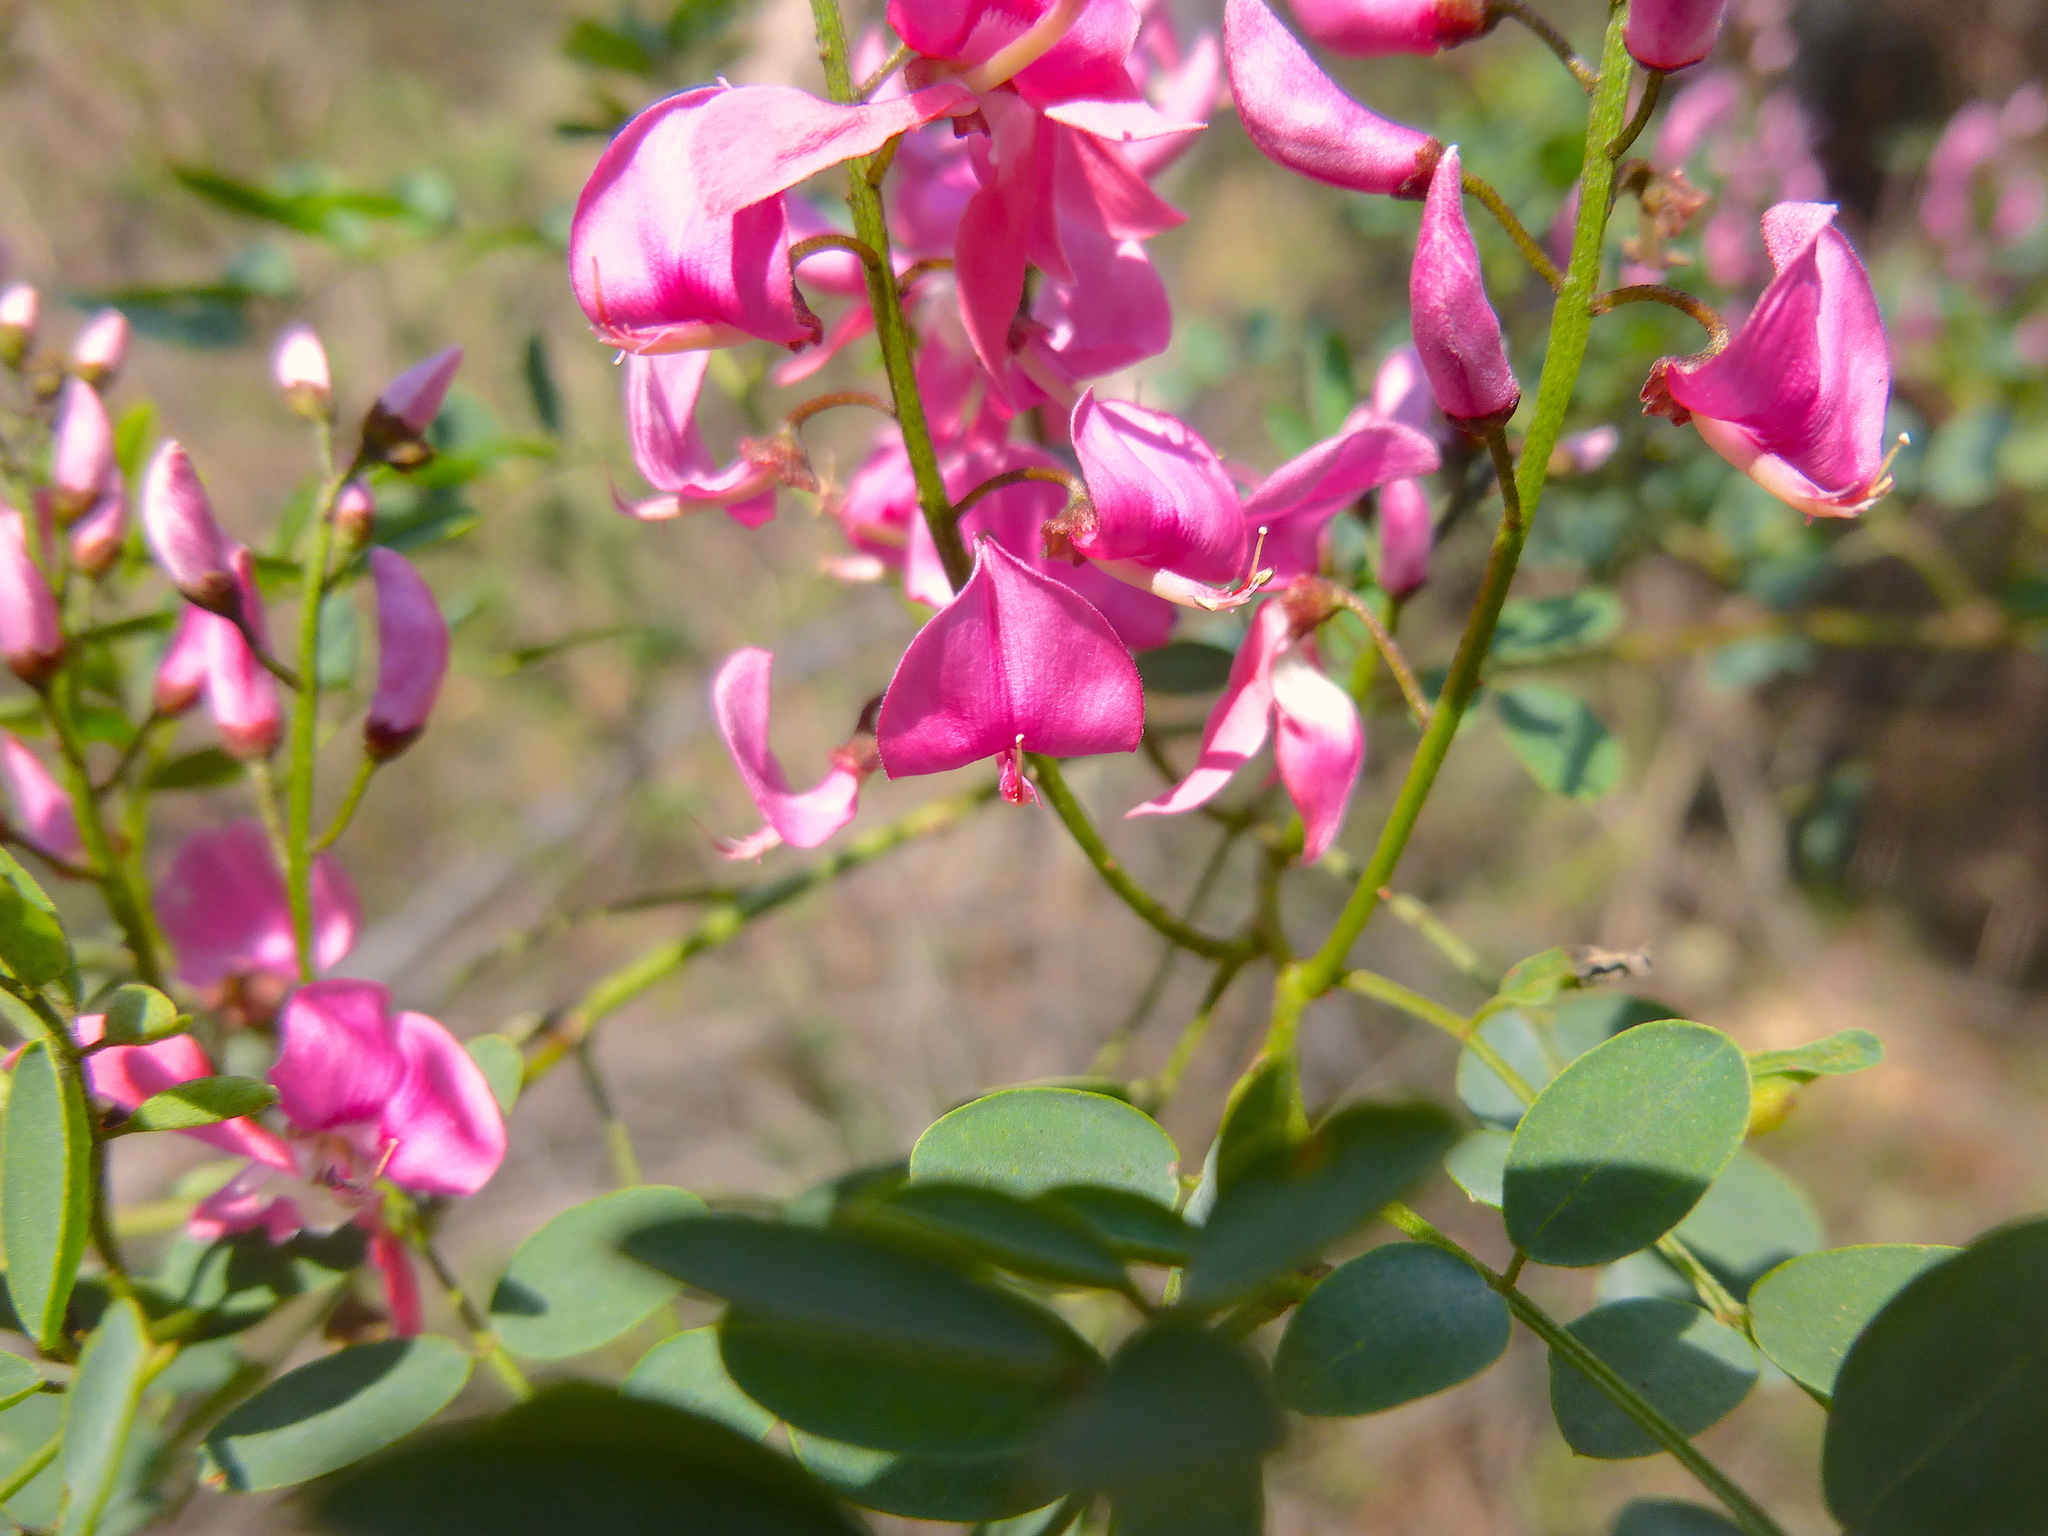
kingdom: Plantae
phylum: Tracheophyta
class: Magnoliopsida
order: Fabales
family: Fabaceae
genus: Indigofera
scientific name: Indigofera australis
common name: Australian indigo
